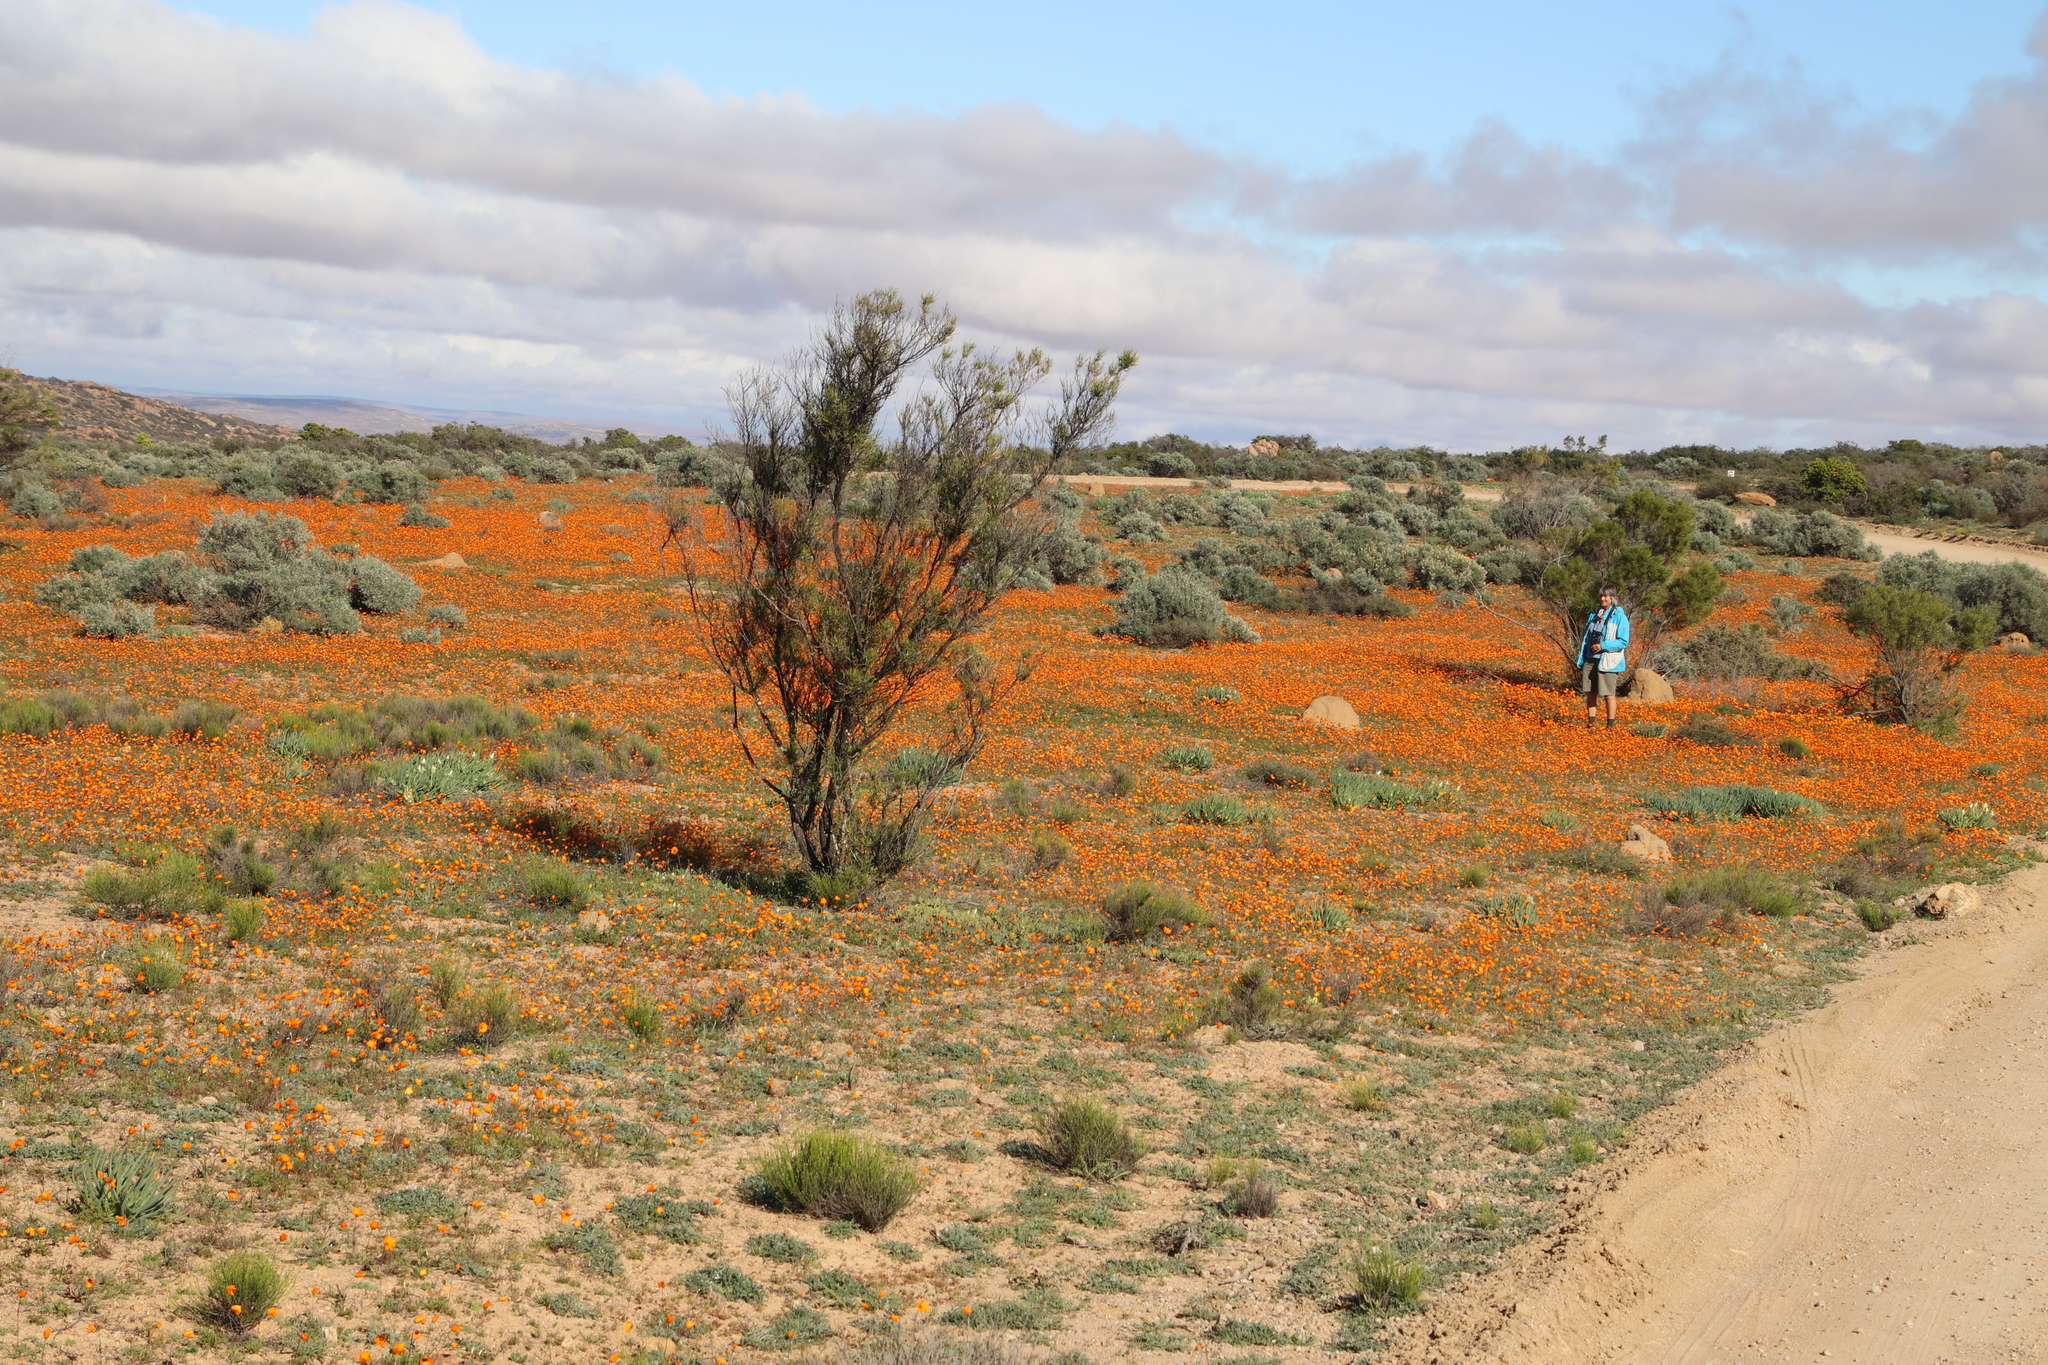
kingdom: Plantae
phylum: Tracheophyta
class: Magnoliopsida
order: Sapindales
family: Sapindaceae
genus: Dodonaea
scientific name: Dodonaea viscosa
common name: Hopbush
